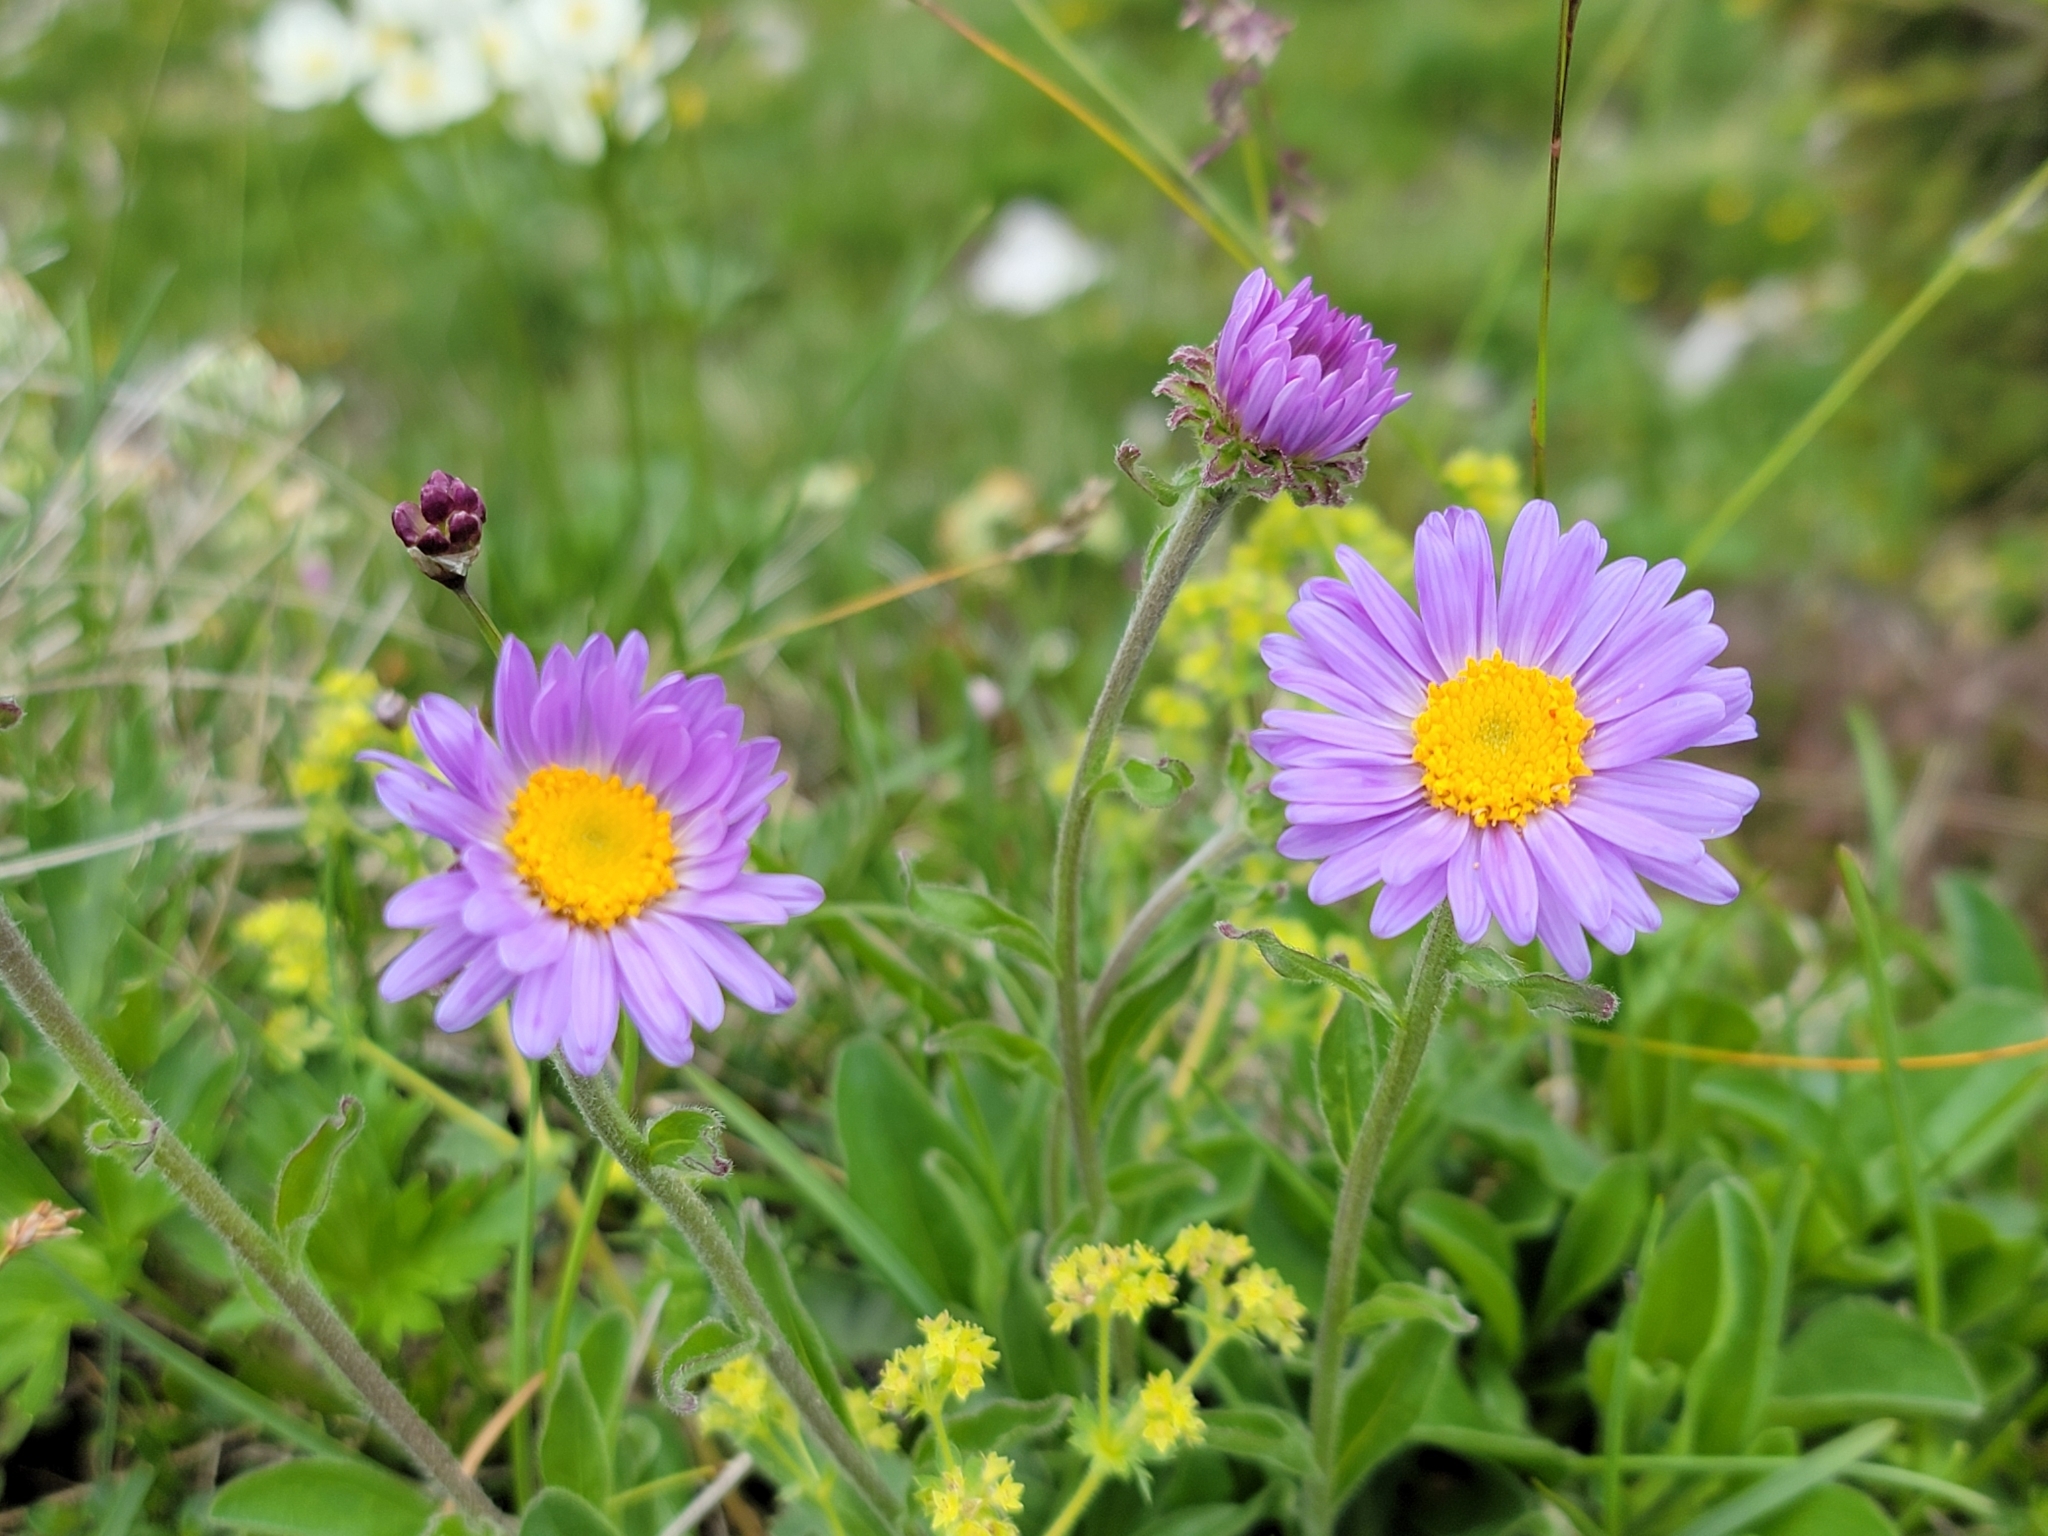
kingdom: Plantae
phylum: Tracheophyta
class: Magnoliopsida
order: Asterales
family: Asteraceae
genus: Aster
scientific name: Aster alpinus
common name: Alpine aster
